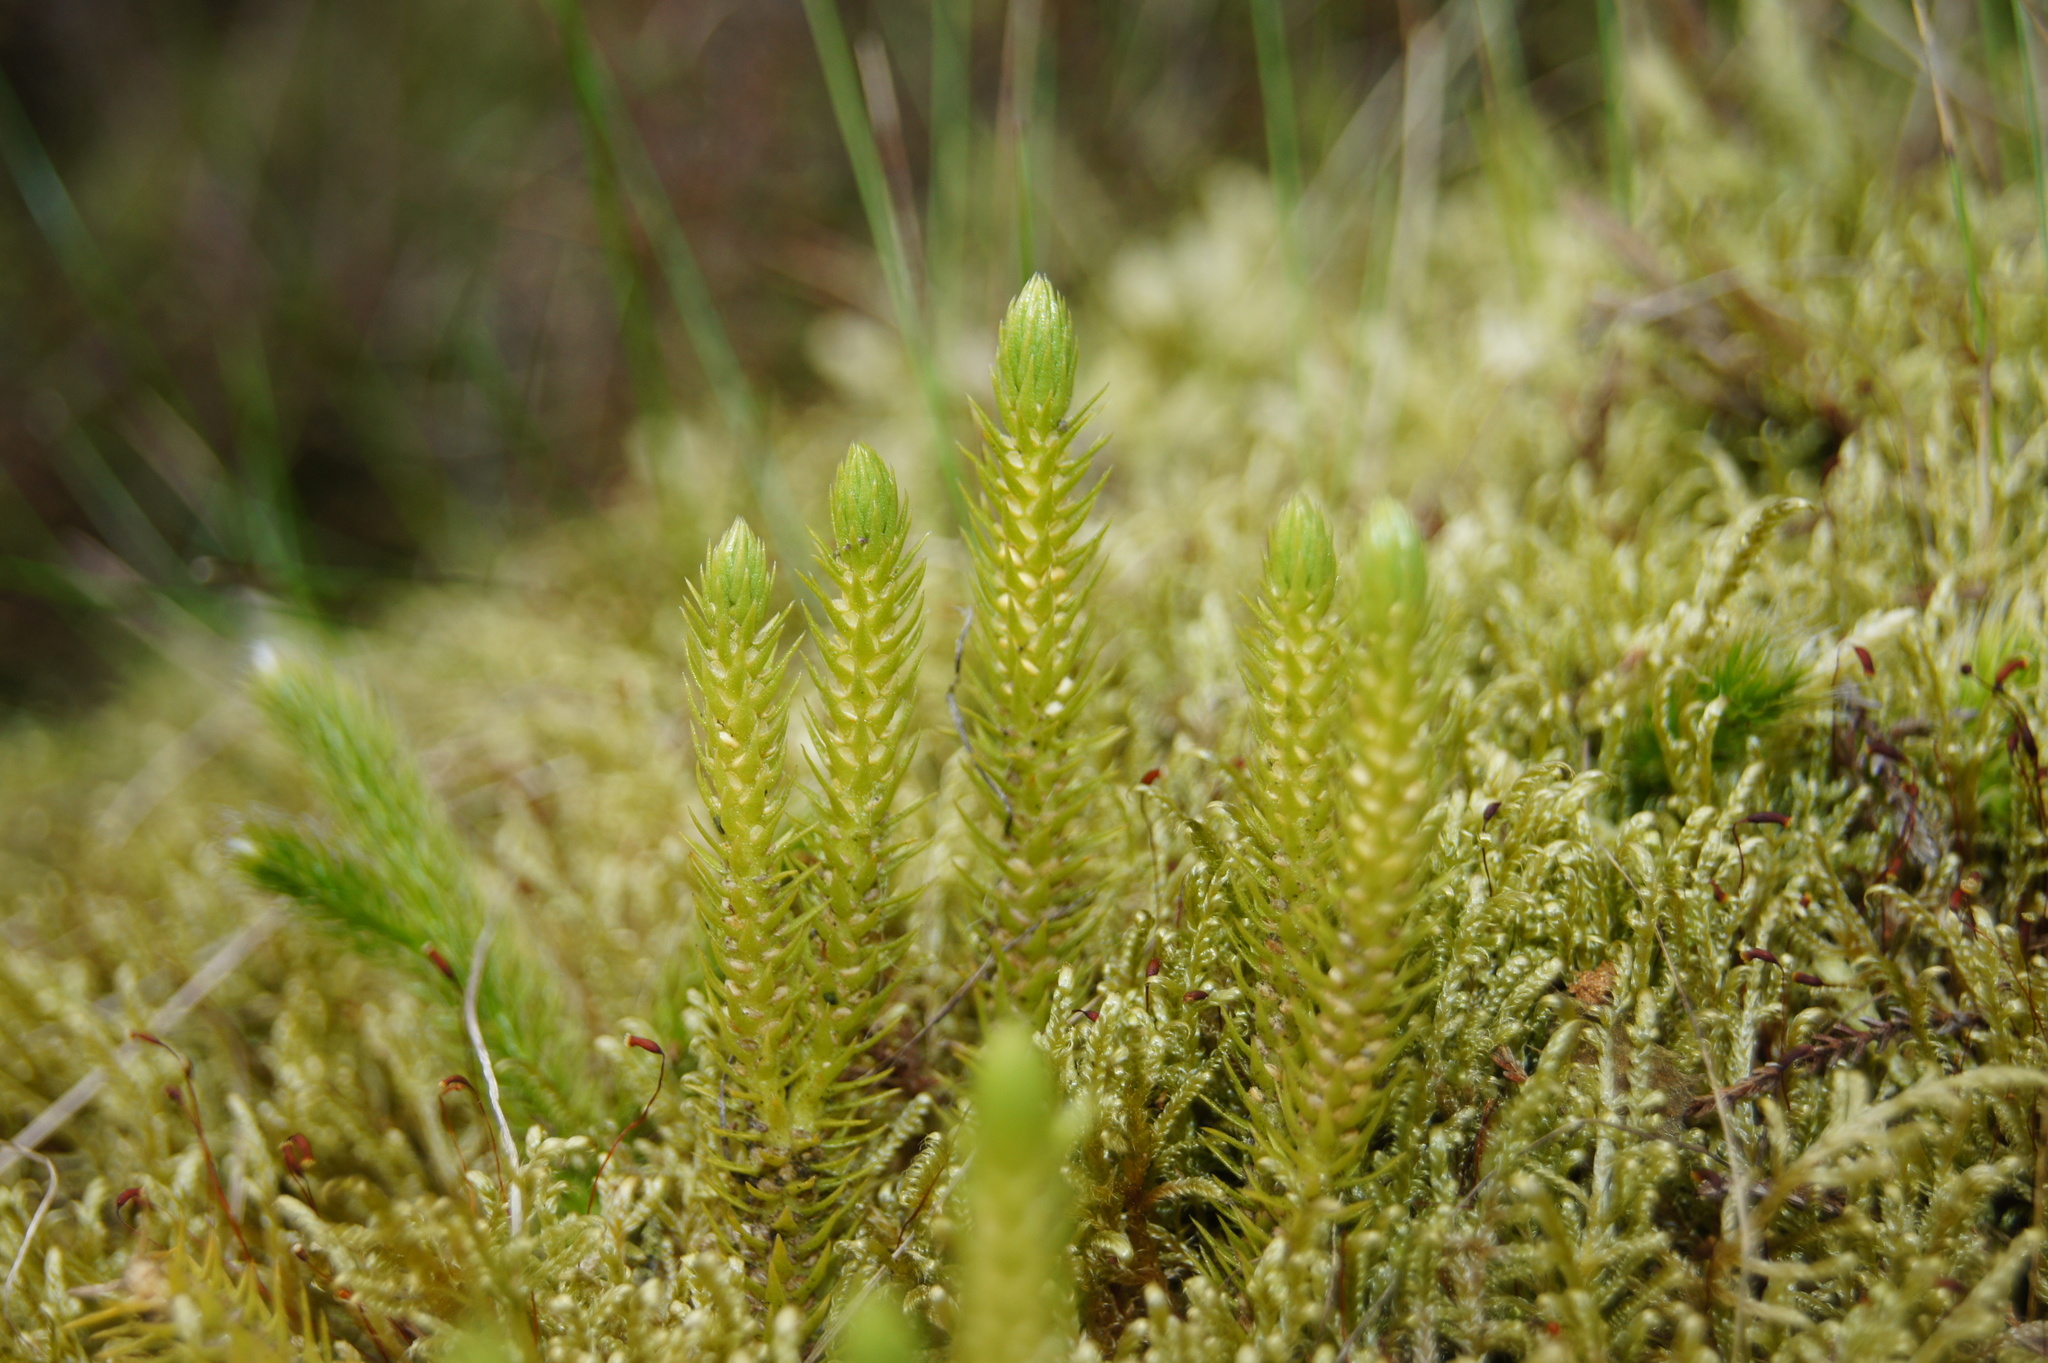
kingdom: Plantae
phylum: Tracheophyta
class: Lycopodiopsida
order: Lycopodiales
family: Lycopodiaceae
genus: Huperzia
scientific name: Huperzia selago
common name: Northern firmoss
